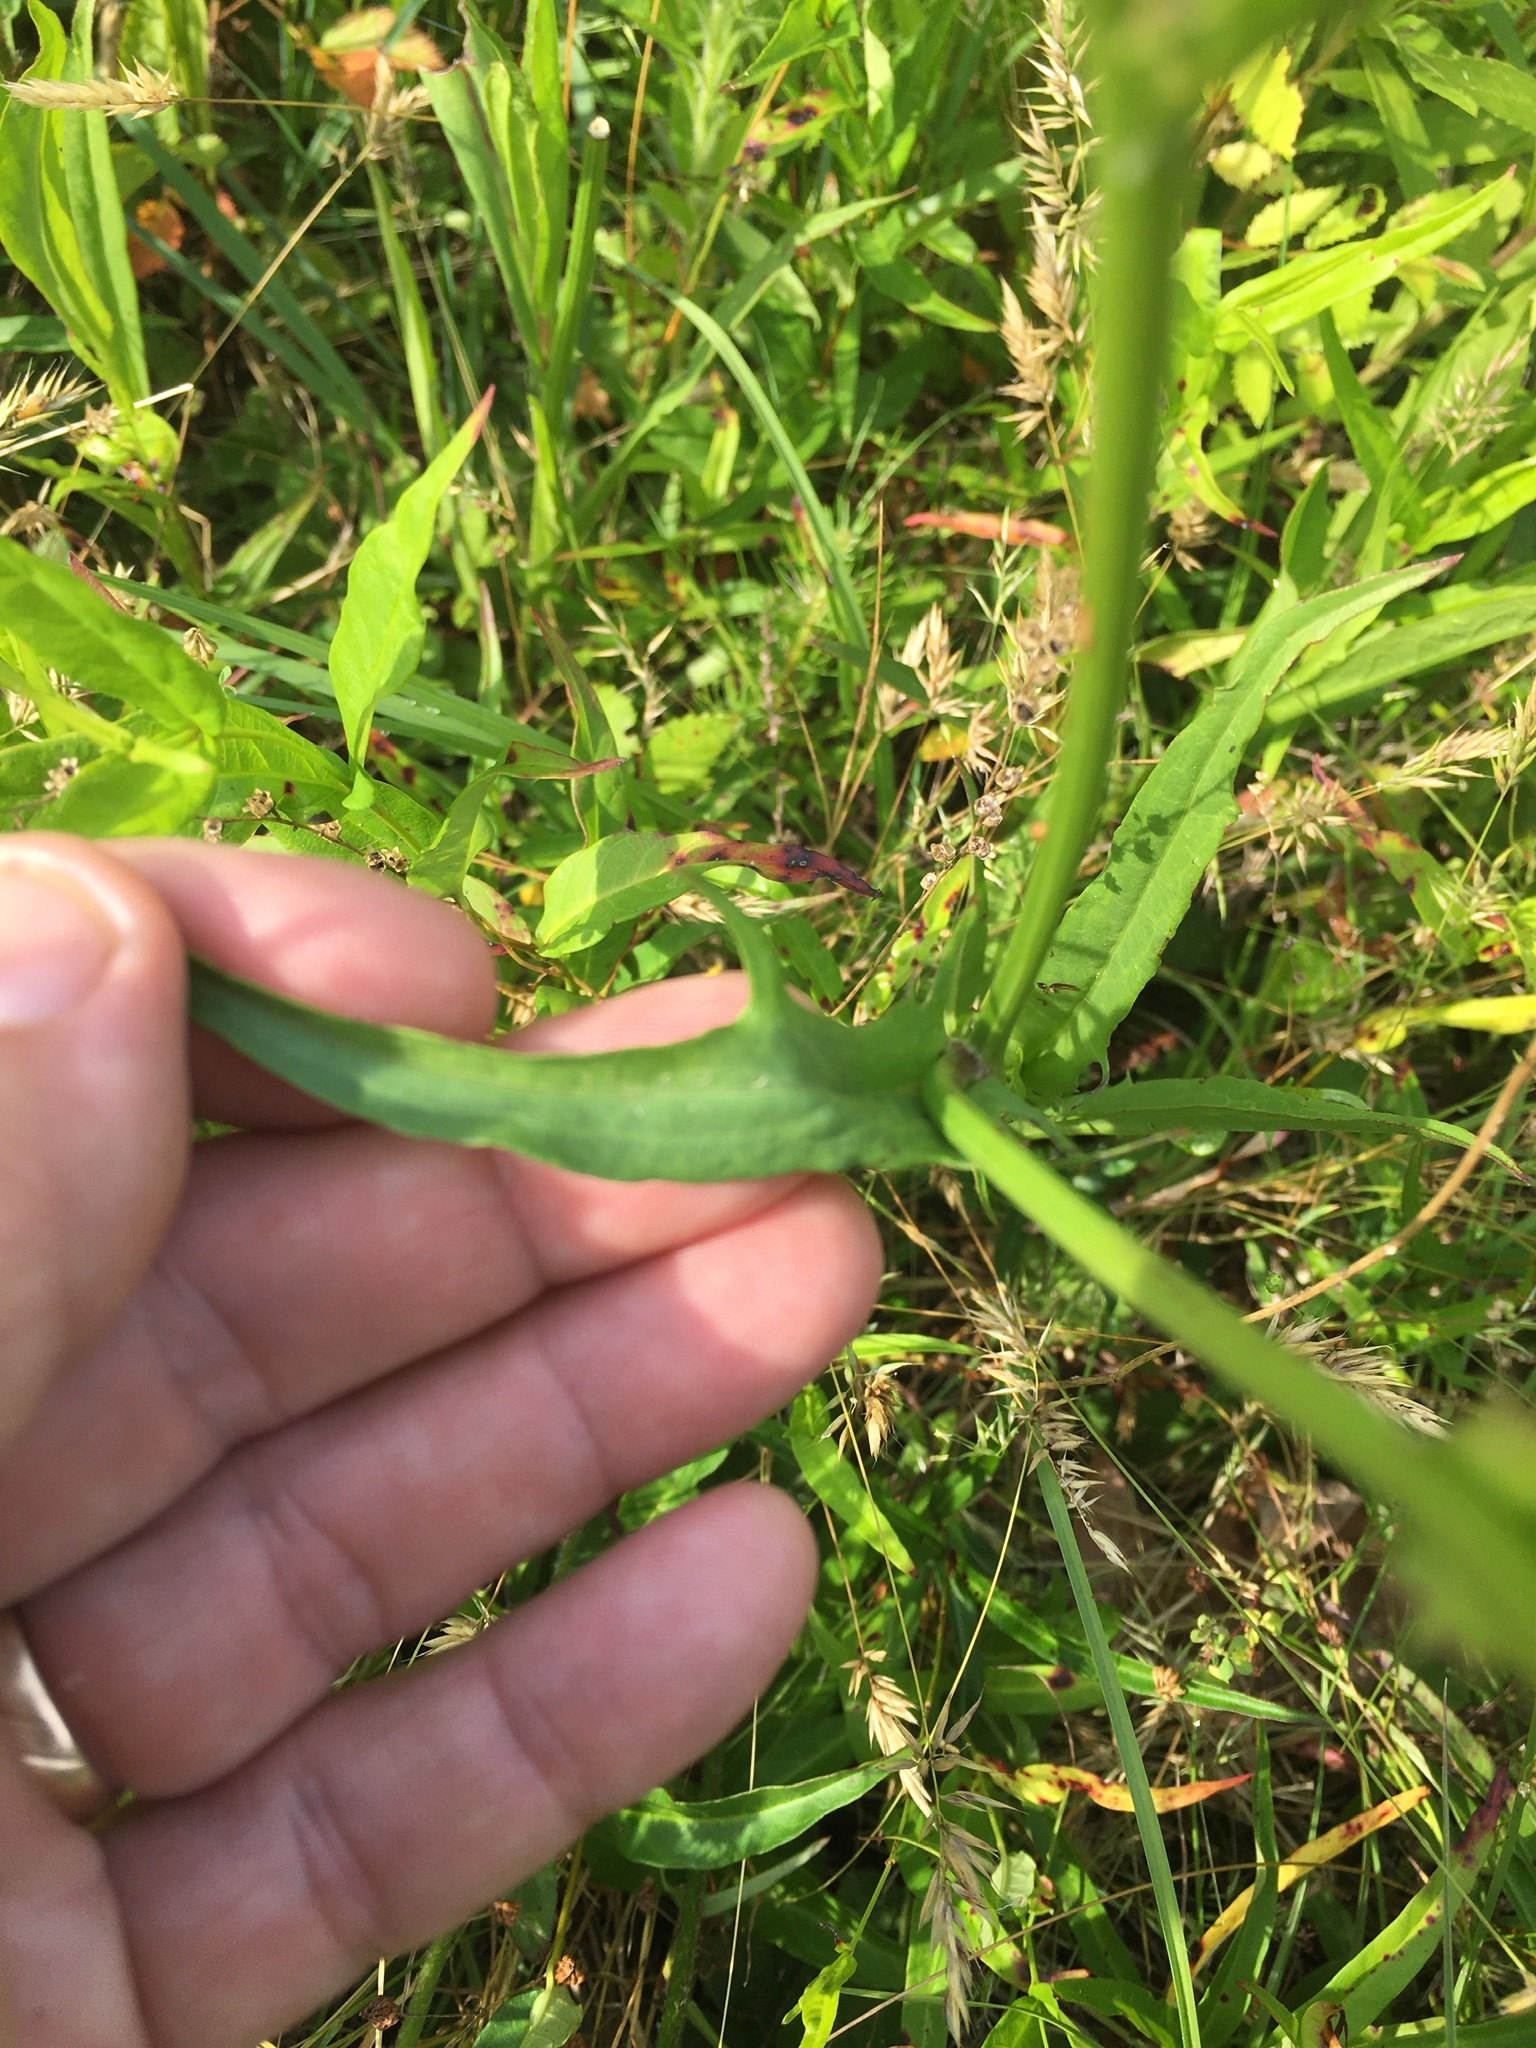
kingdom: Plantae
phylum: Tracheophyta
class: Magnoliopsida
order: Asterales
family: Asteraceae
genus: Pyrrhopappus
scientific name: Pyrrhopappus carolinianus
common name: Carolina desert-chicory
